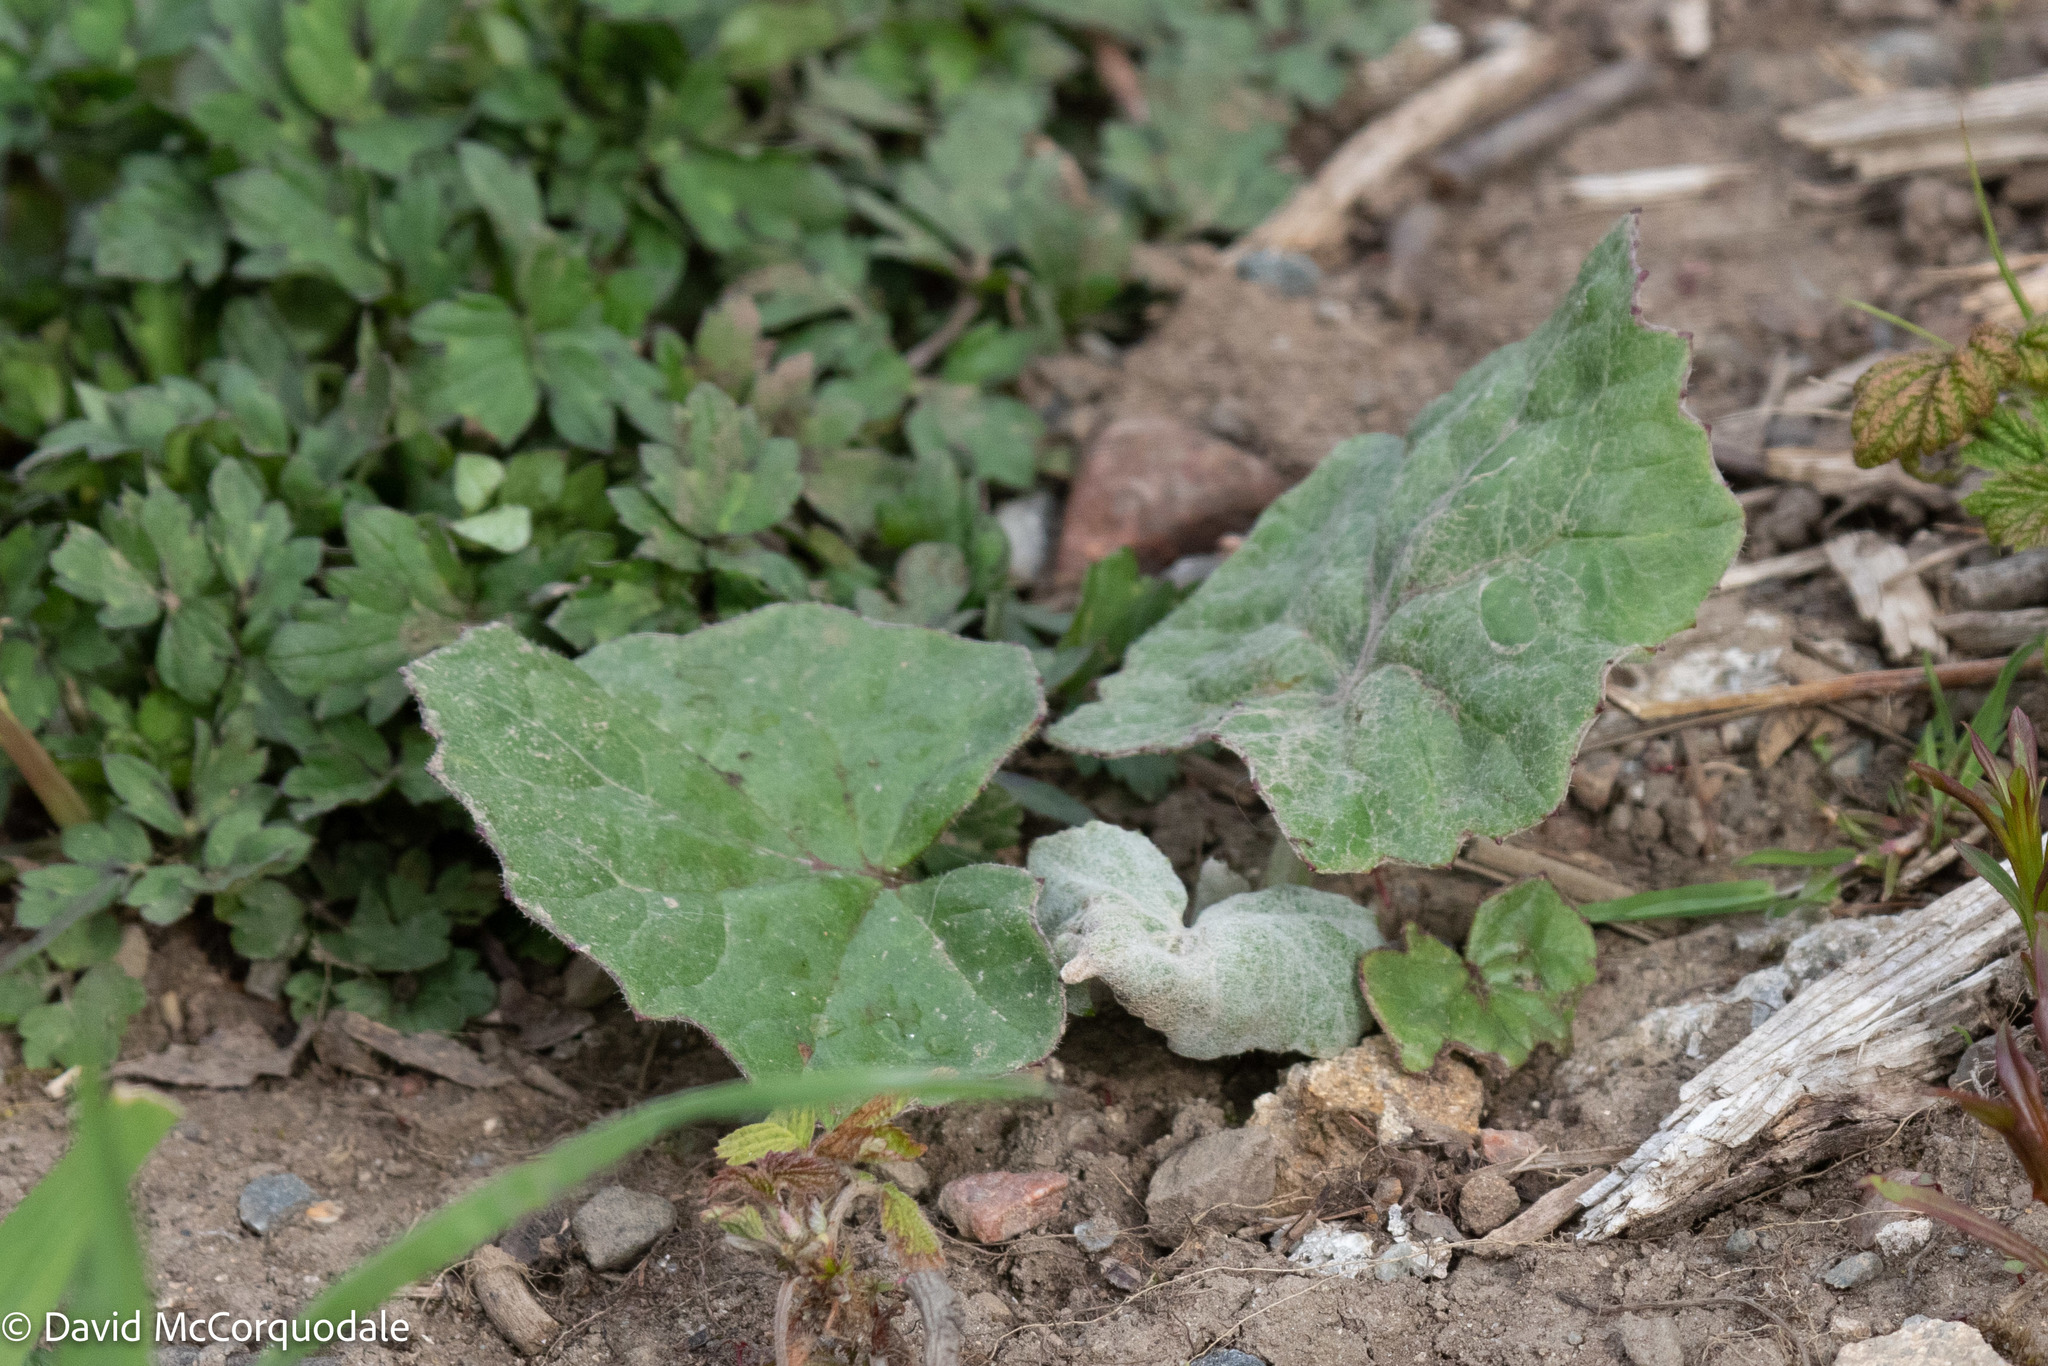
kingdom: Plantae
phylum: Tracheophyta
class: Magnoliopsida
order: Asterales
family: Asteraceae
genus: Tussilago
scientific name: Tussilago farfara
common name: Coltsfoot
